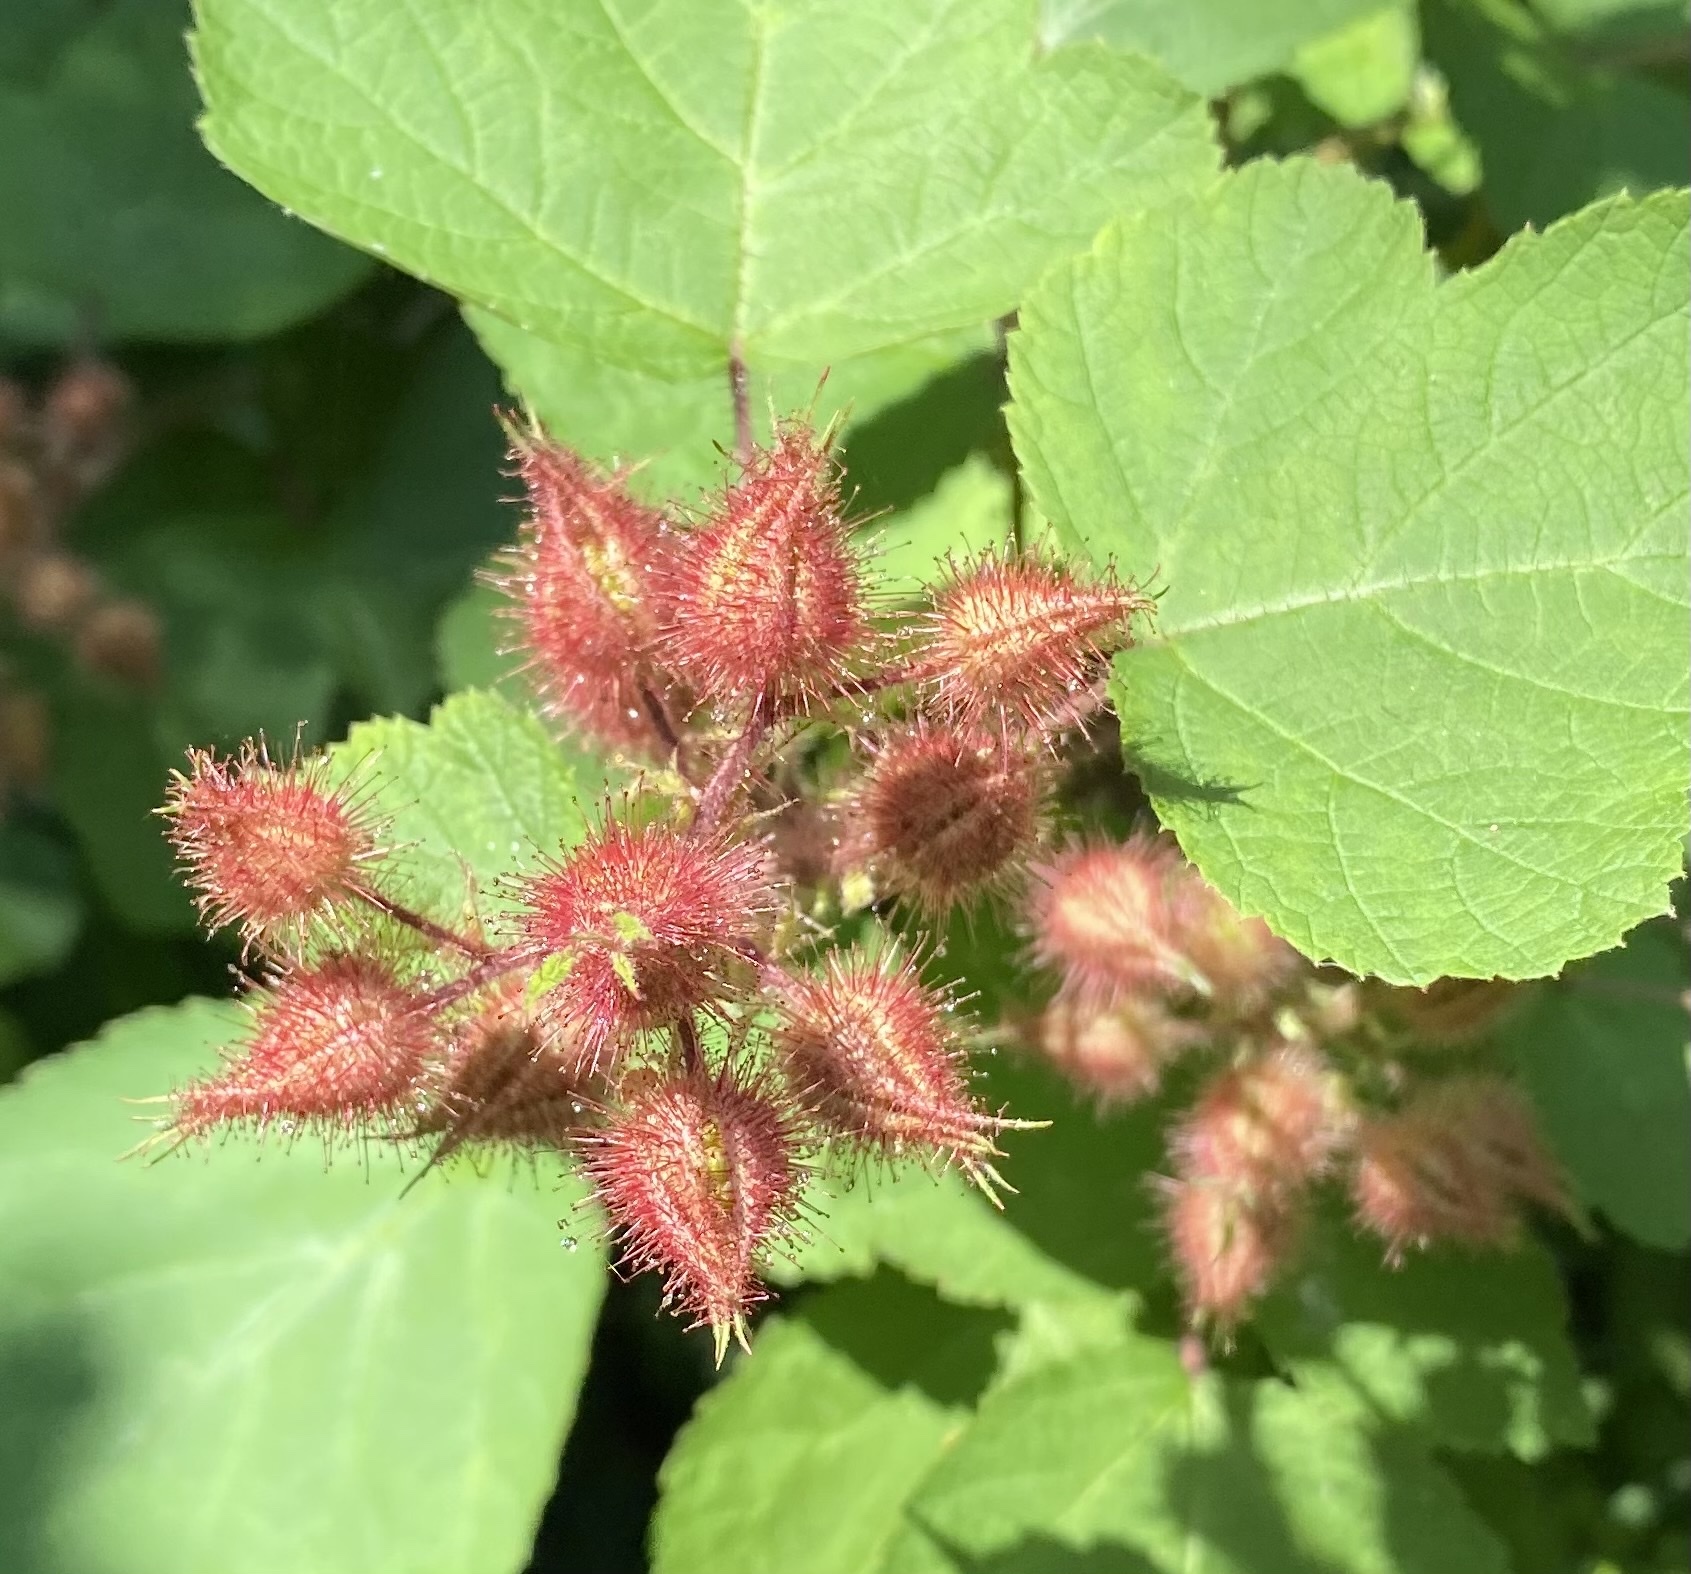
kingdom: Plantae
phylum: Tracheophyta
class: Magnoliopsida
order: Rosales
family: Rosaceae
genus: Rubus
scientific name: Rubus phoenicolasius
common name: Japanese wineberry
